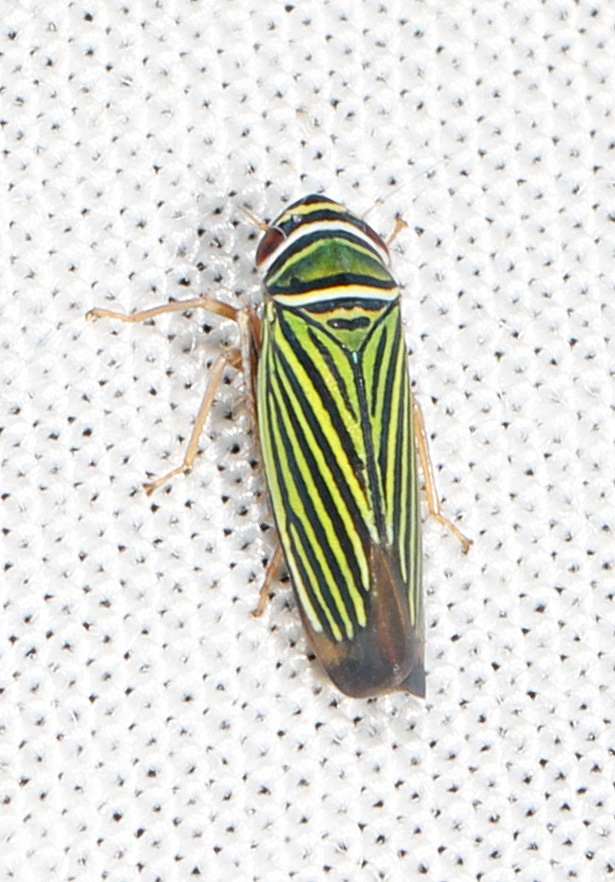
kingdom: Animalia
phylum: Arthropoda
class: Insecta
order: Hemiptera
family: Cicadellidae
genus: Tylozygus
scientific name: Tylozygus bifidus
